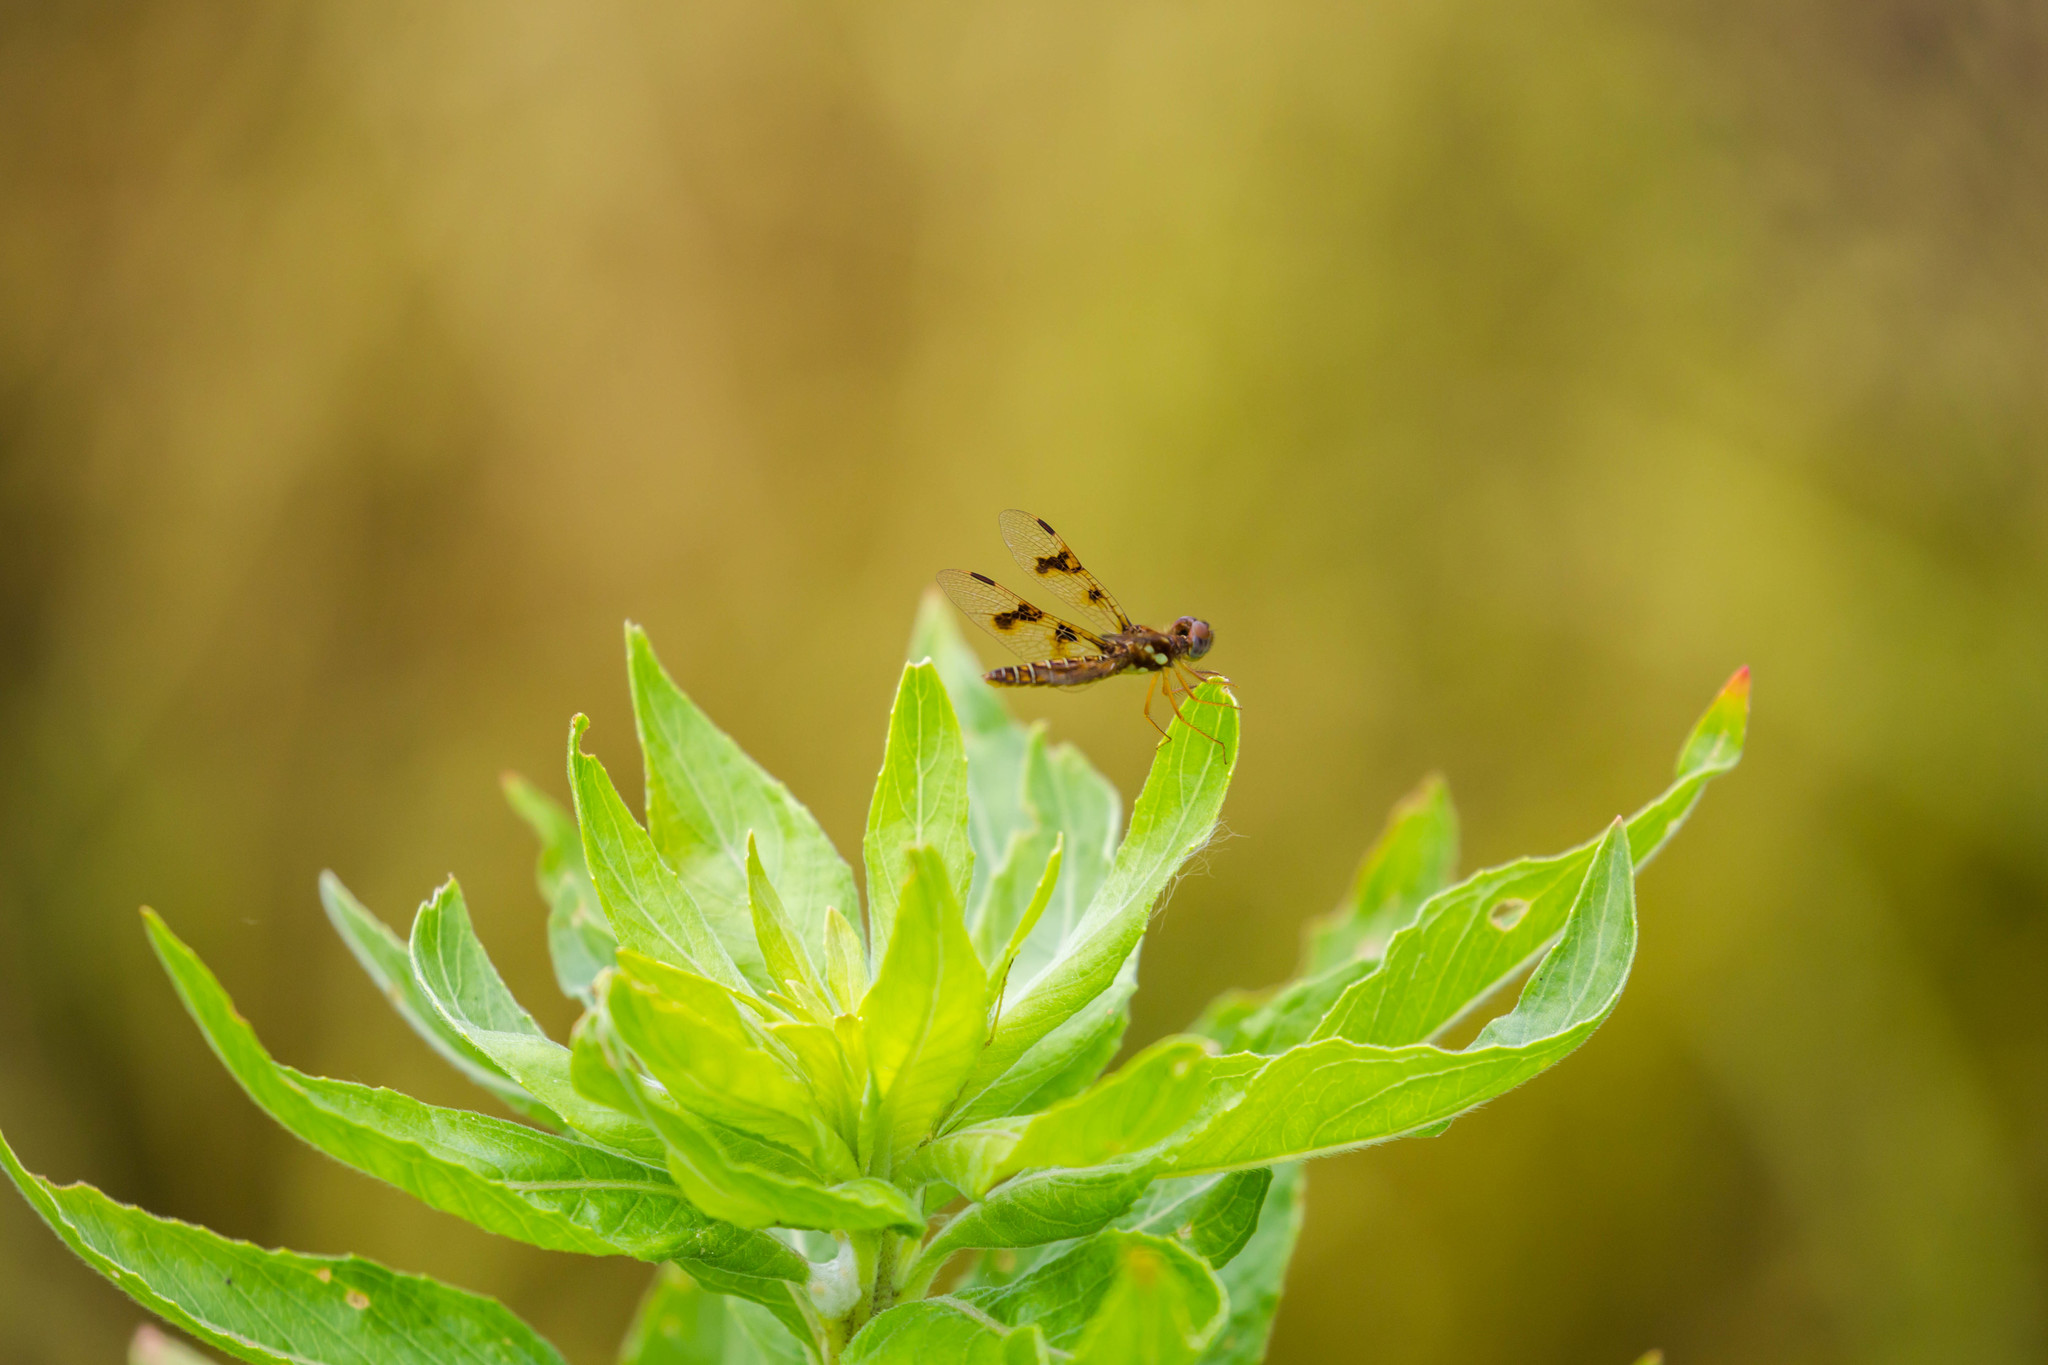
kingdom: Animalia
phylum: Arthropoda
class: Insecta
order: Odonata
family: Libellulidae
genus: Perithemis
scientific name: Perithemis tenera
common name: Eastern amberwing
